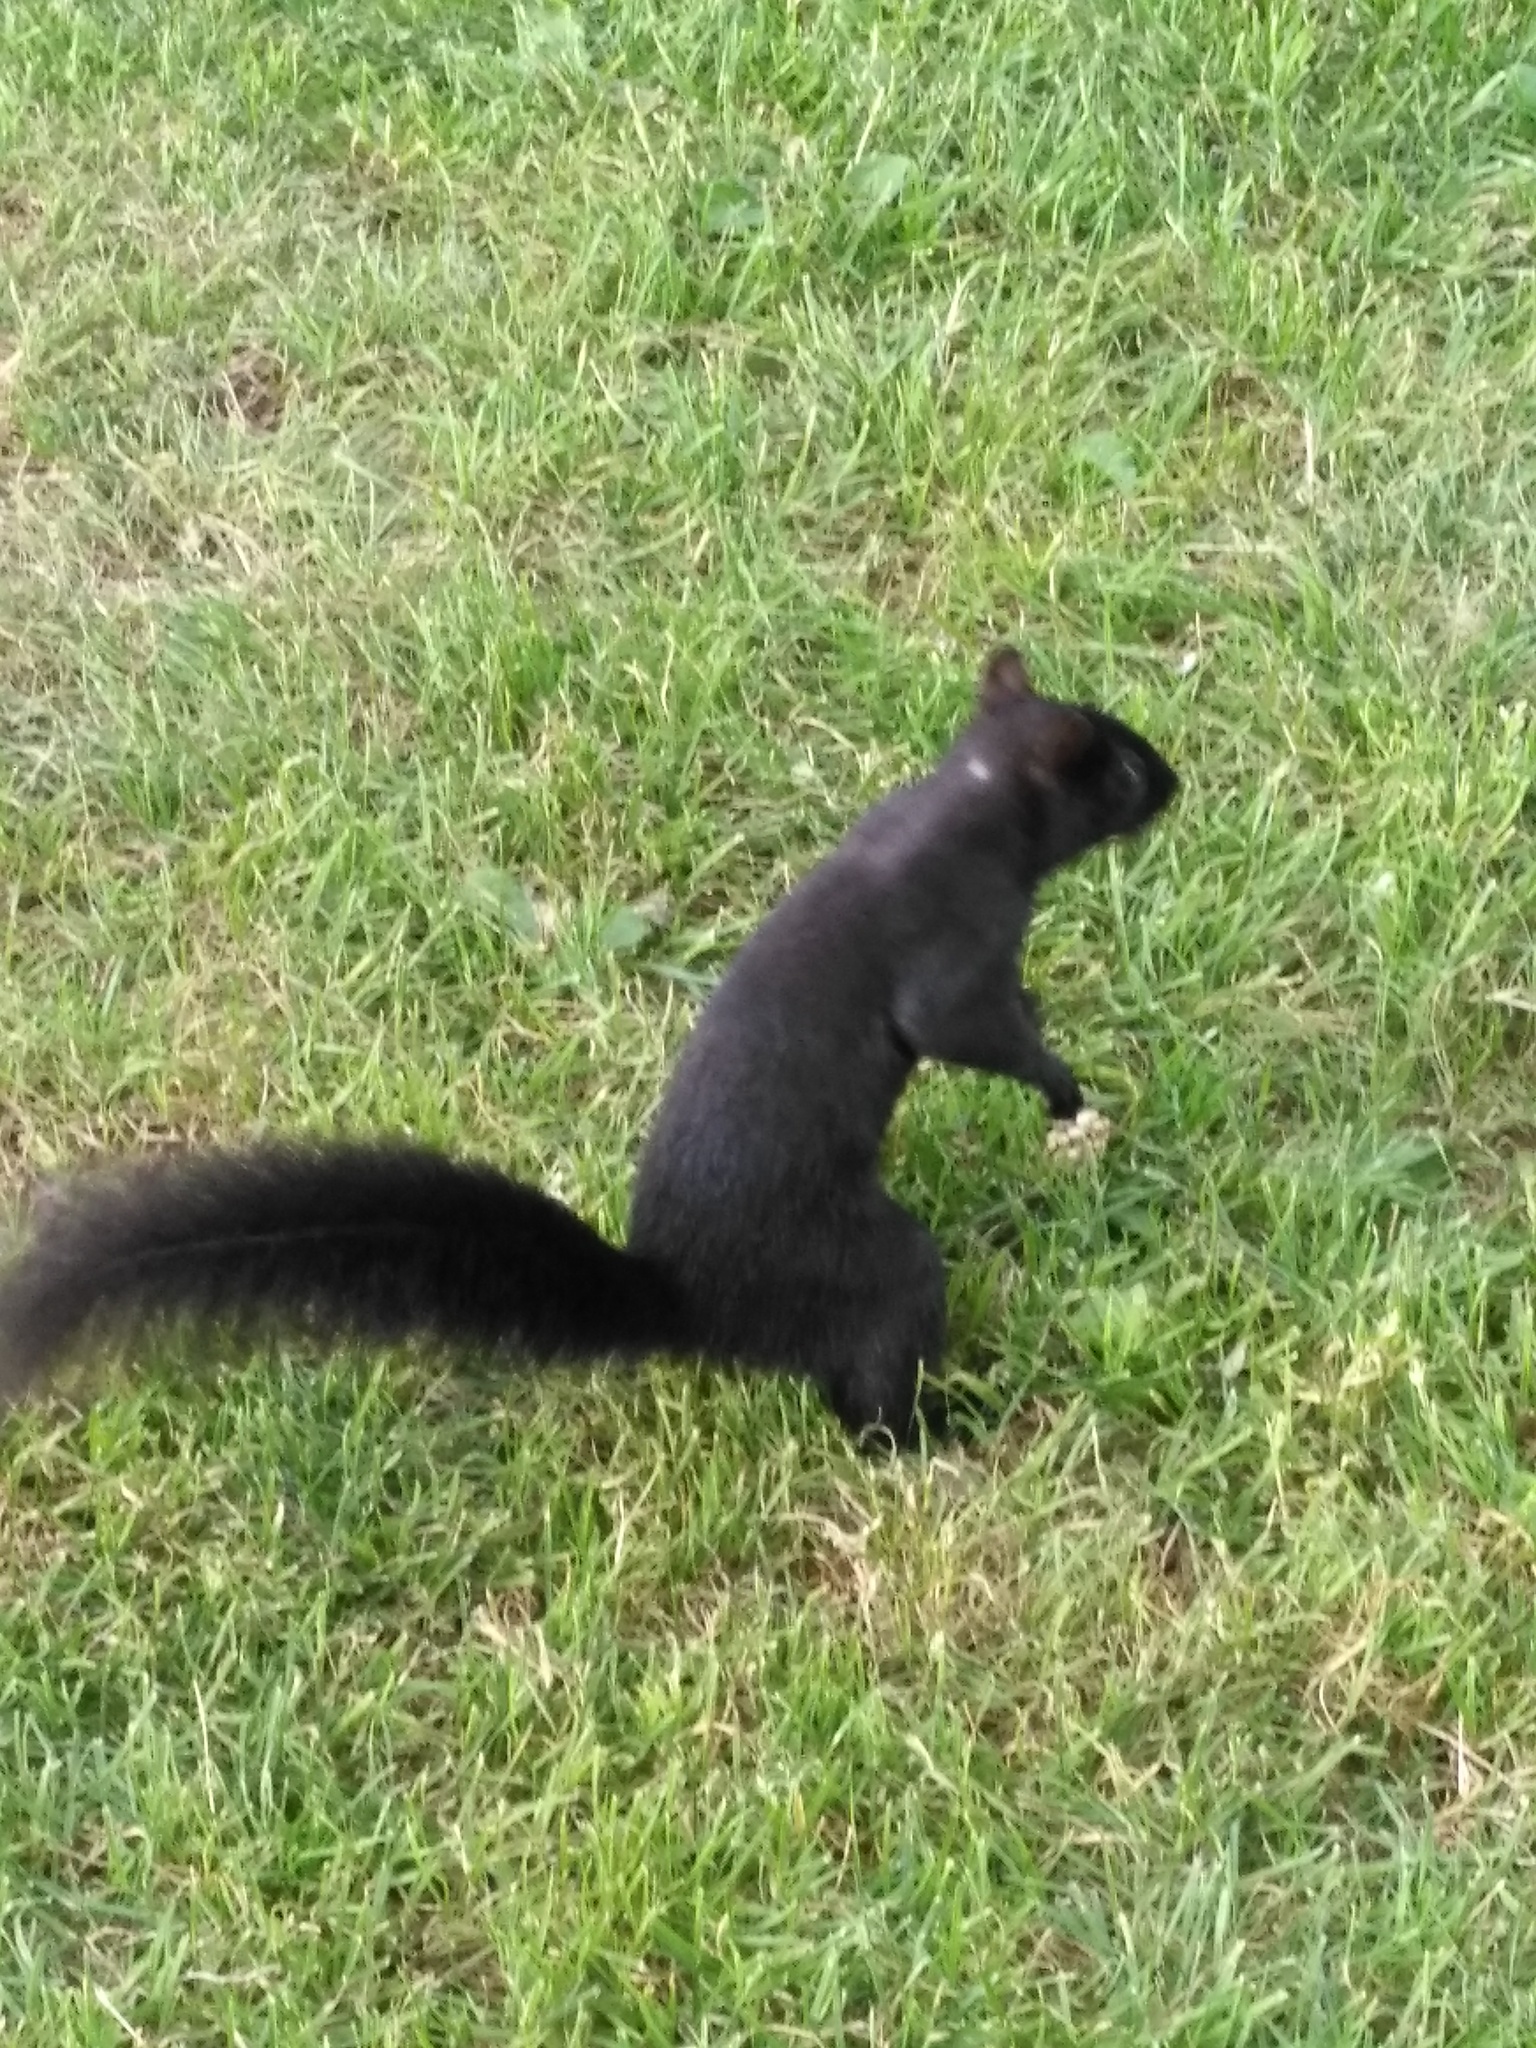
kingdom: Animalia
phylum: Chordata
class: Mammalia
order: Rodentia
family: Sciuridae
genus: Sciurus
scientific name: Sciurus carolinensis
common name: Eastern gray squirrel
